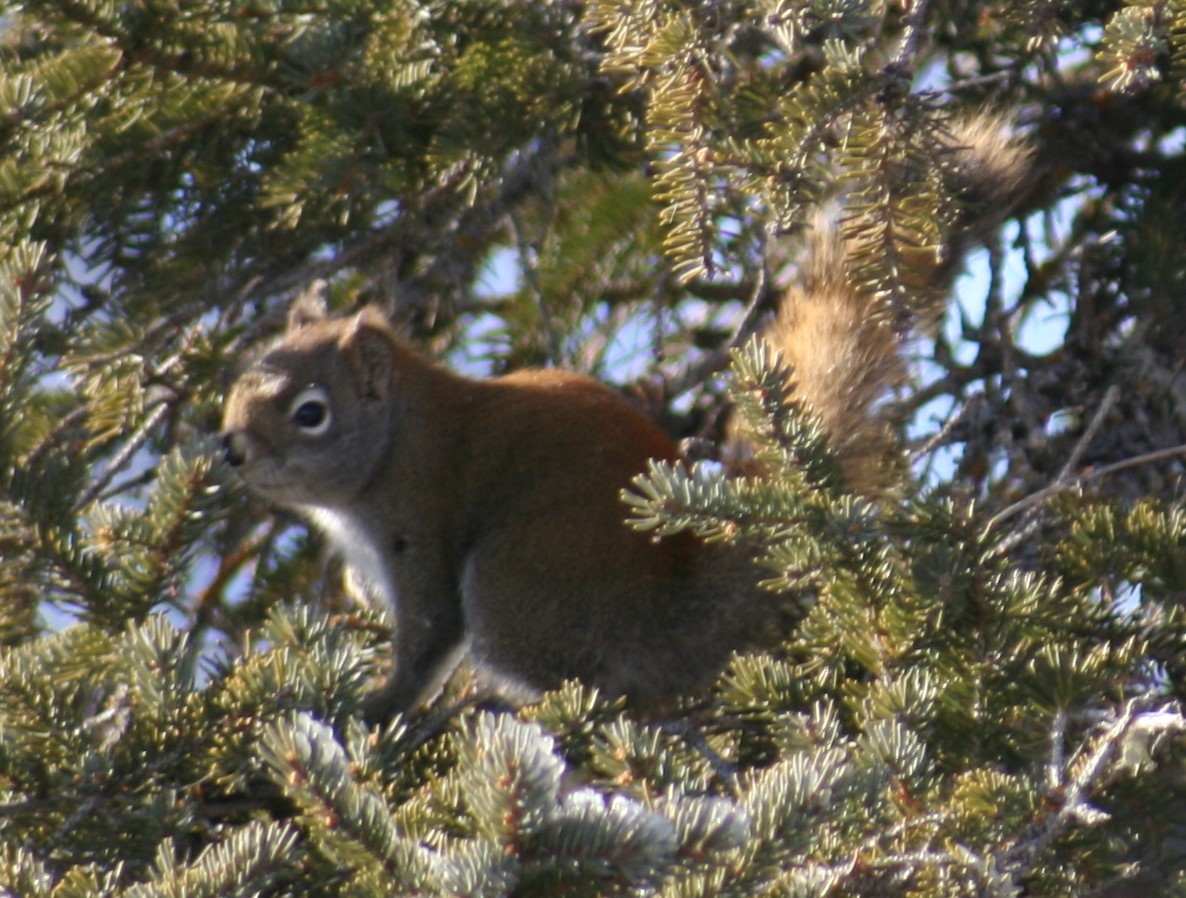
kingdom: Animalia
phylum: Chordata
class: Mammalia
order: Rodentia
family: Sciuridae
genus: Tamiasciurus
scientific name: Tamiasciurus hudsonicus
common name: Red squirrel
